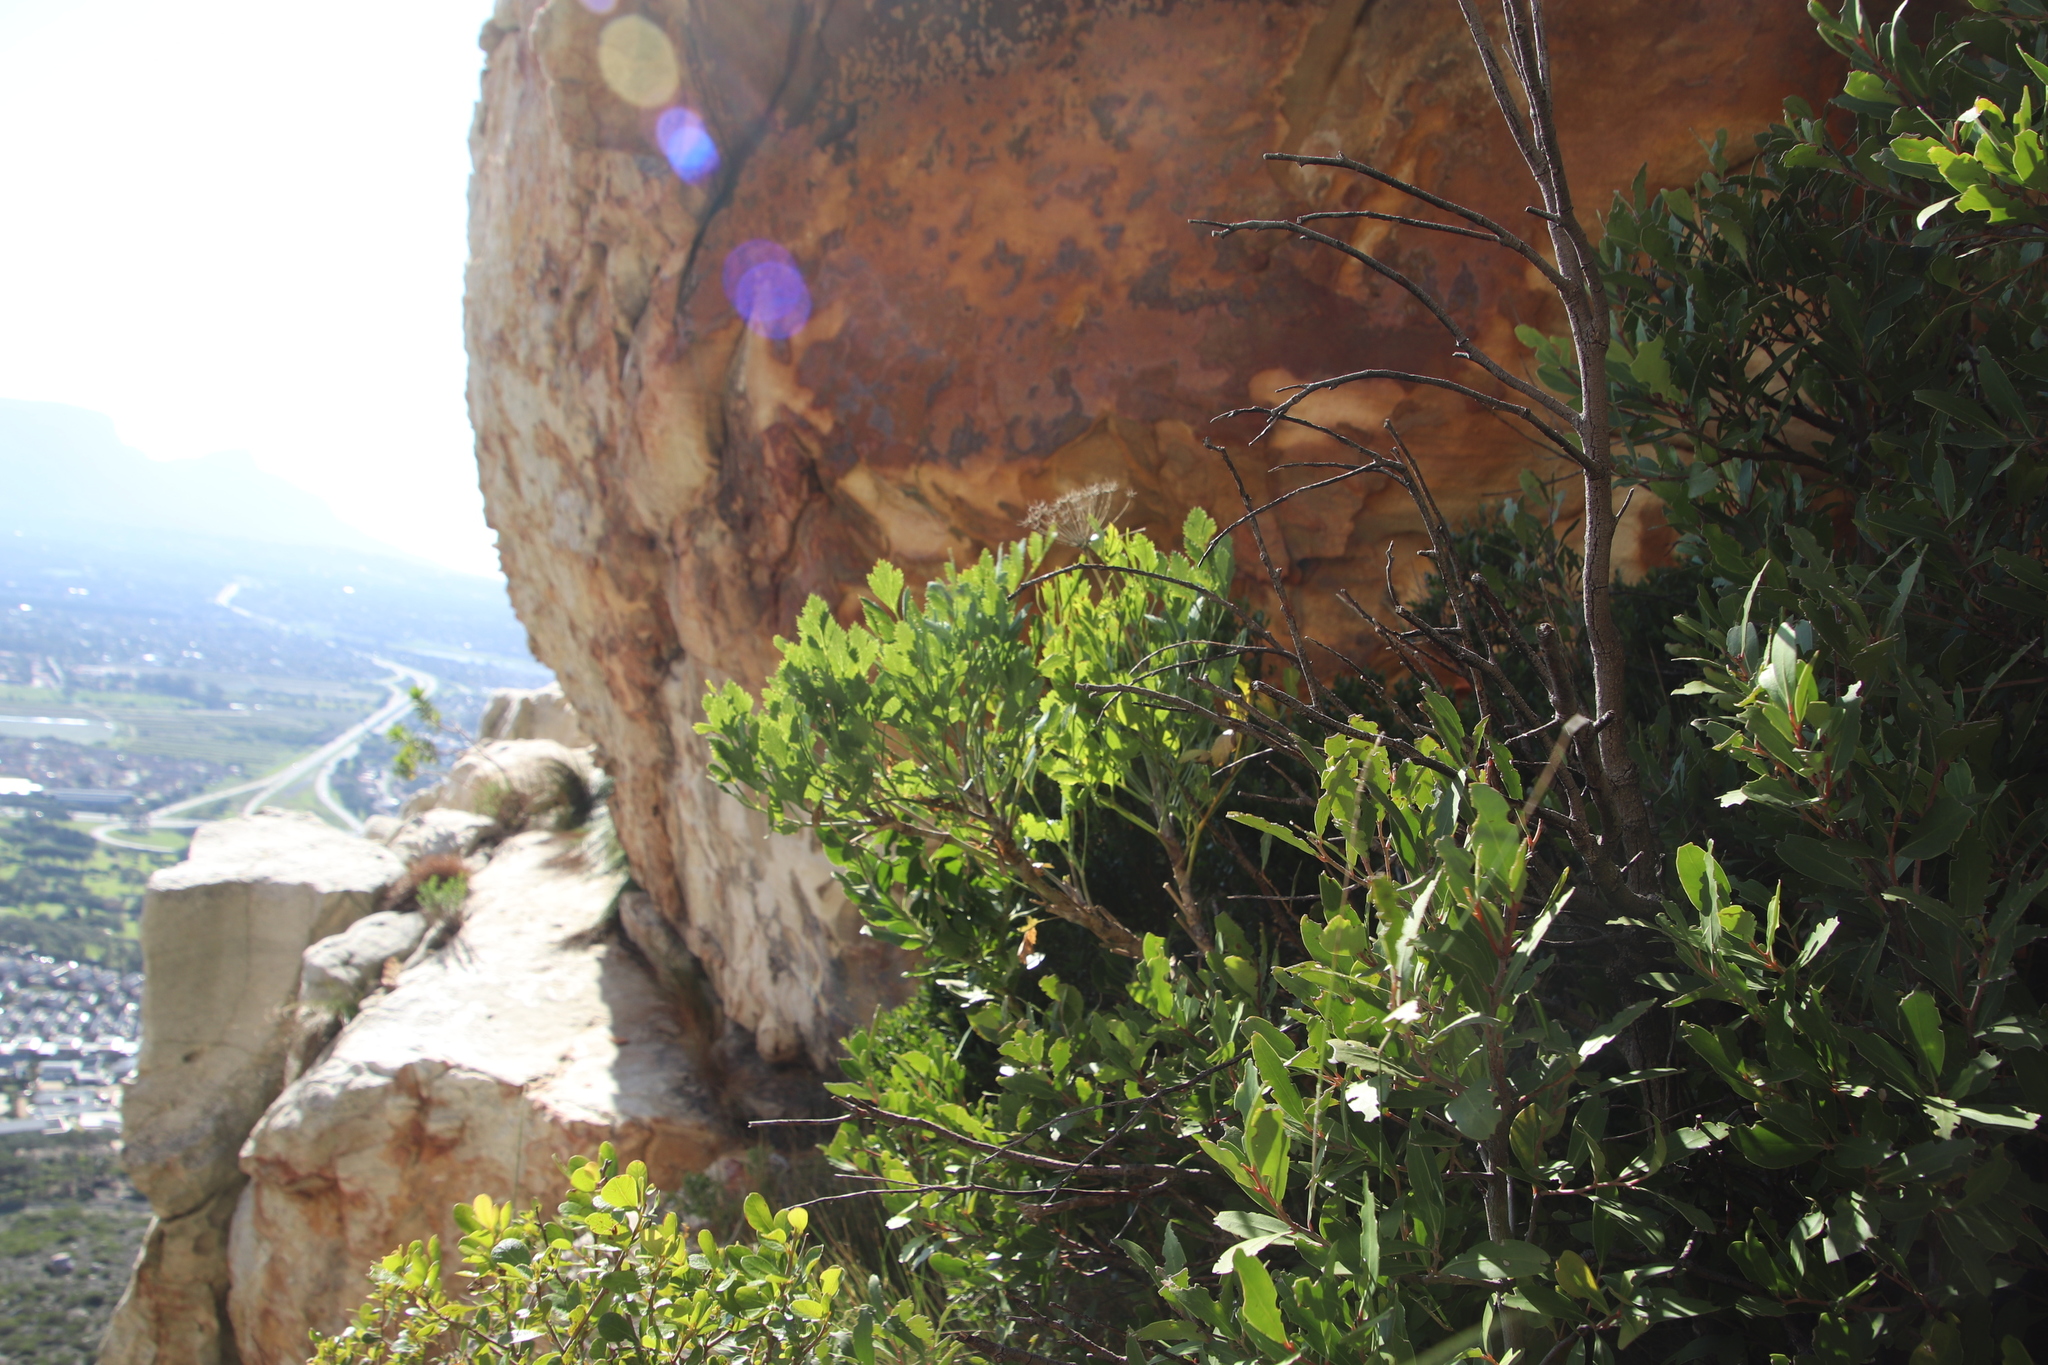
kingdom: Plantae
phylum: Tracheophyta
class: Magnoliopsida
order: Apiales
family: Apiaceae
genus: Notobubon
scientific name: Notobubon galbanum
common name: Blisterbush
